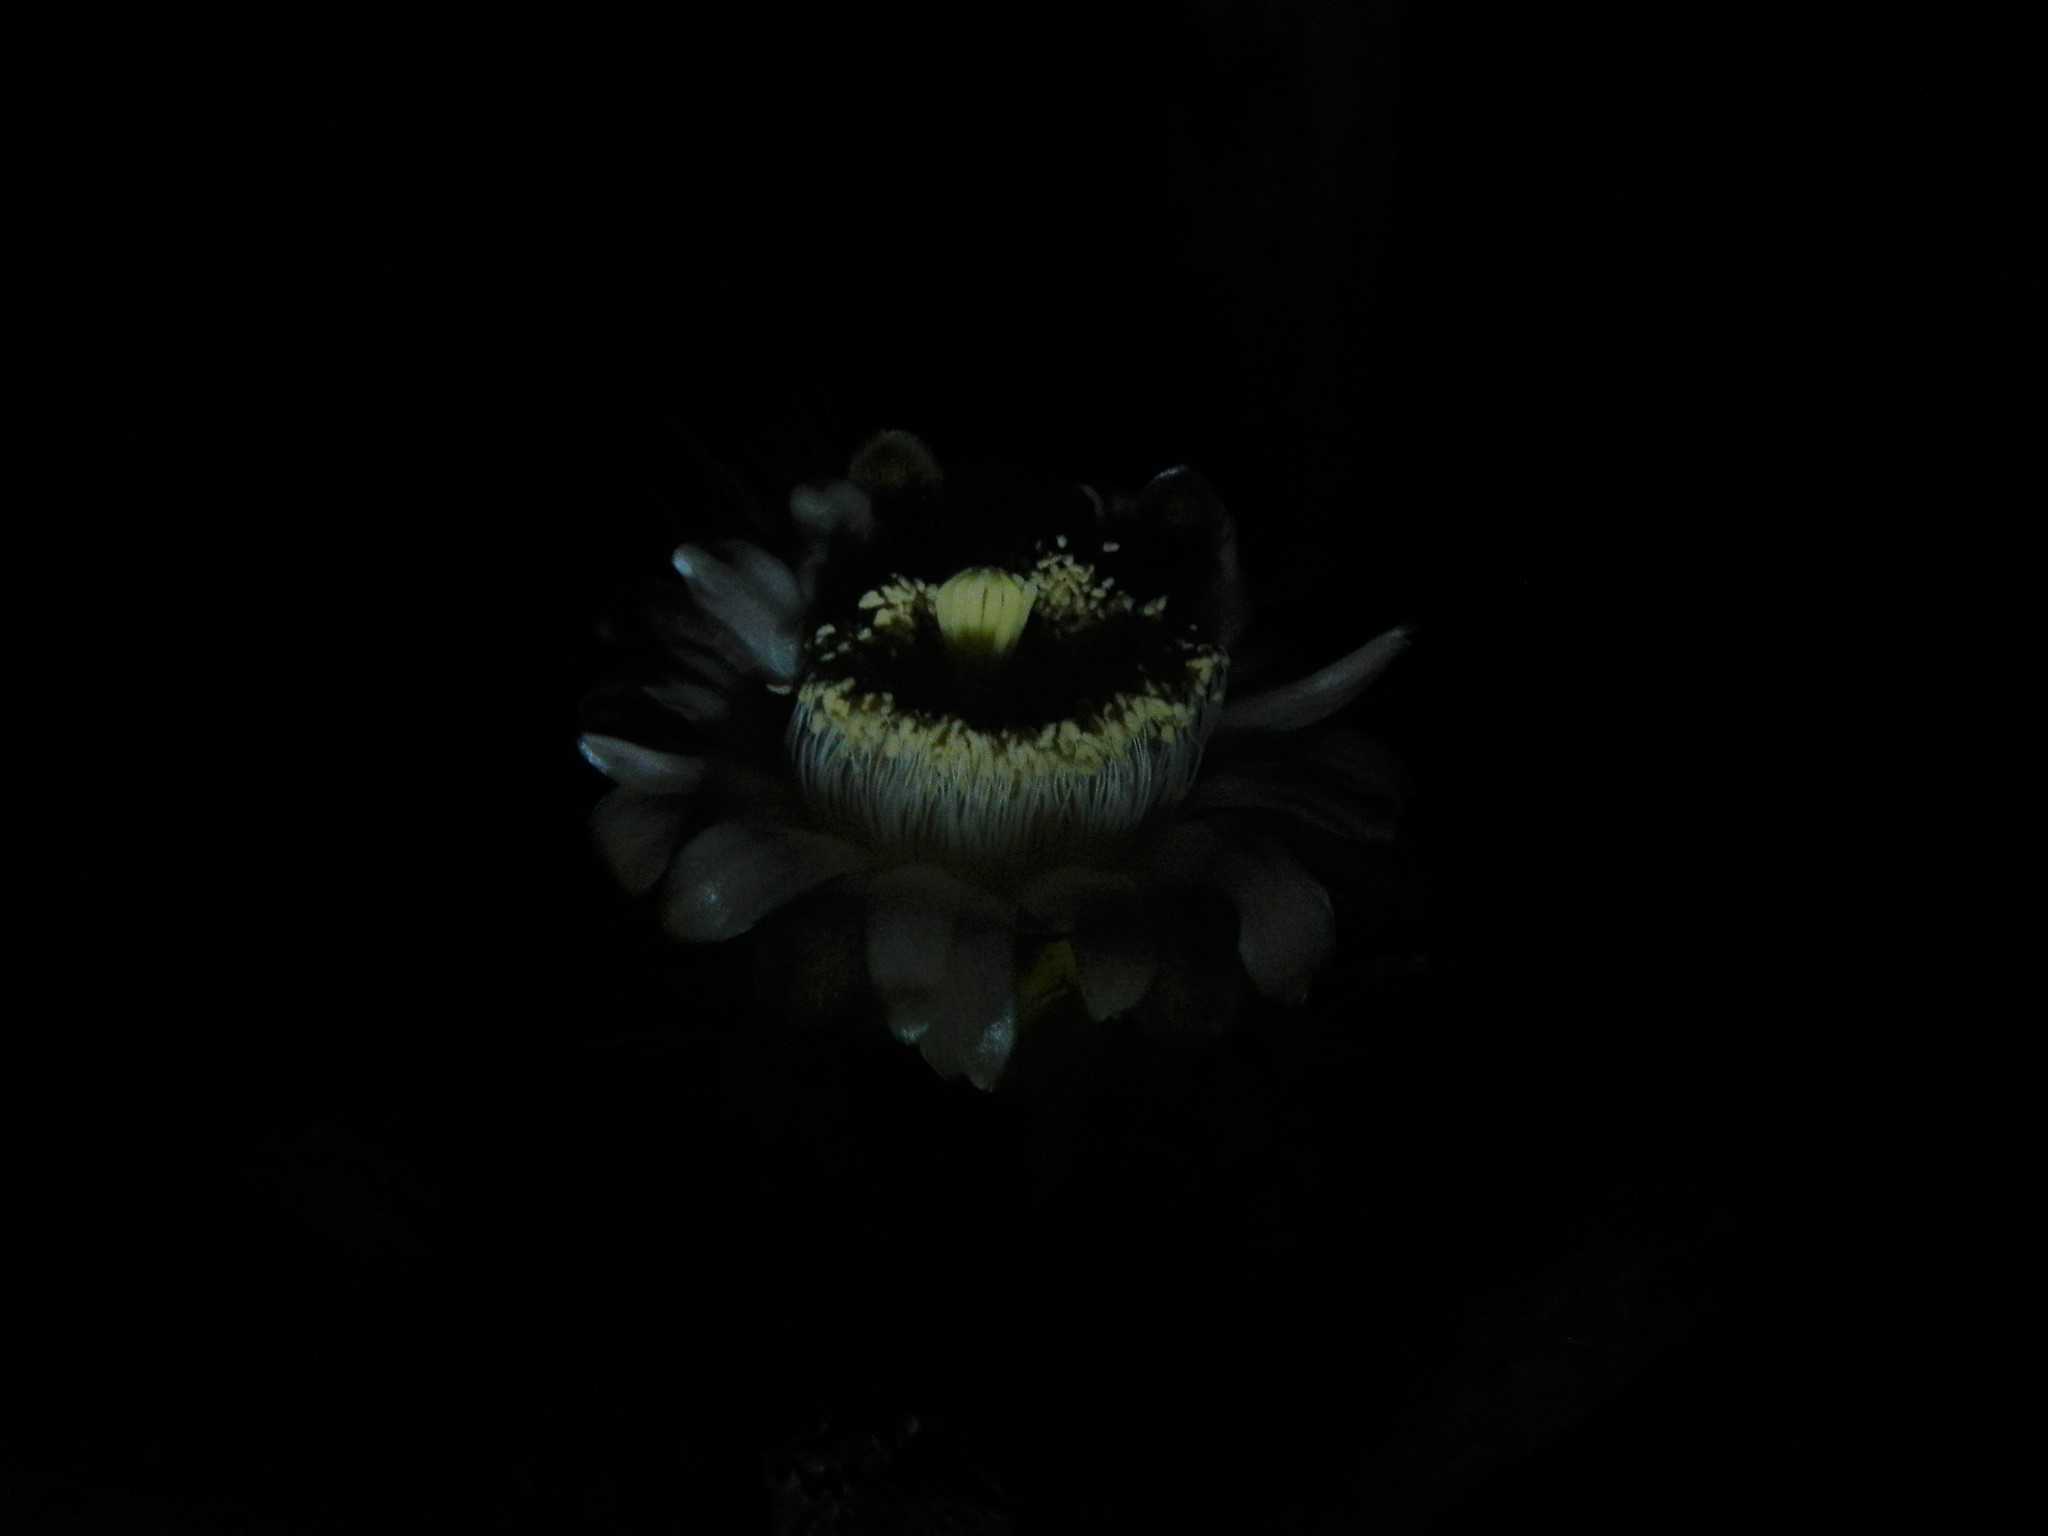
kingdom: Plantae
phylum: Tracheophyta
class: Magnoliopsida
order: Caryophyllales
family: Cactaceae
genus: Stenocereus
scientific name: Stenocereus thurberi
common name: Organ pipe cactus
